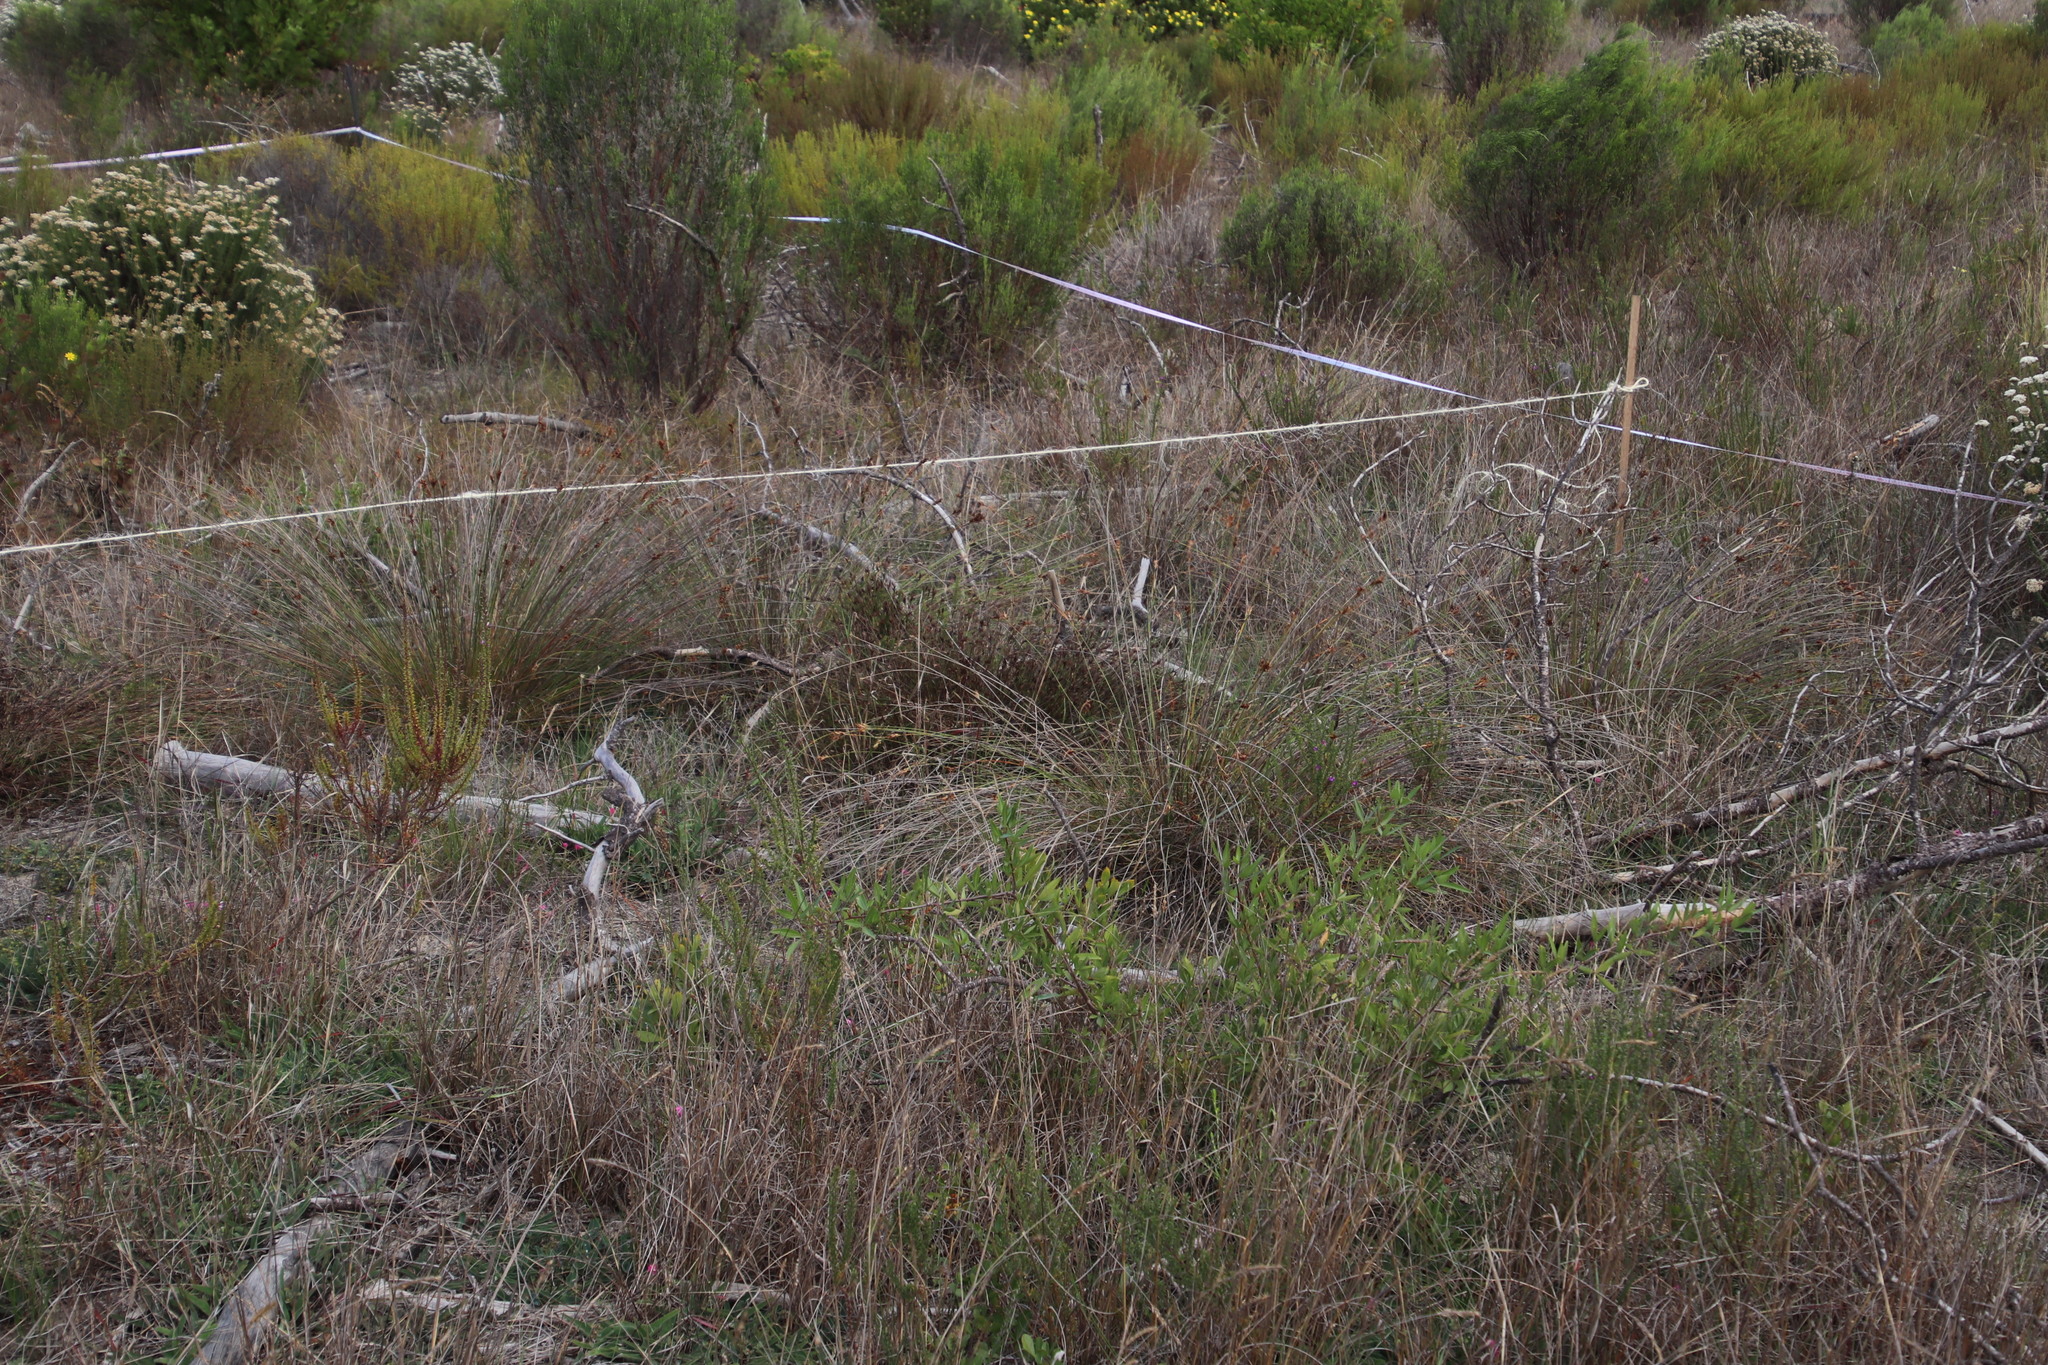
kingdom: Plantae
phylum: Tracheophyta
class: Liliopsida
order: Poales
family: Cyperaceae
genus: Schoenus
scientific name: Schoenus compar
